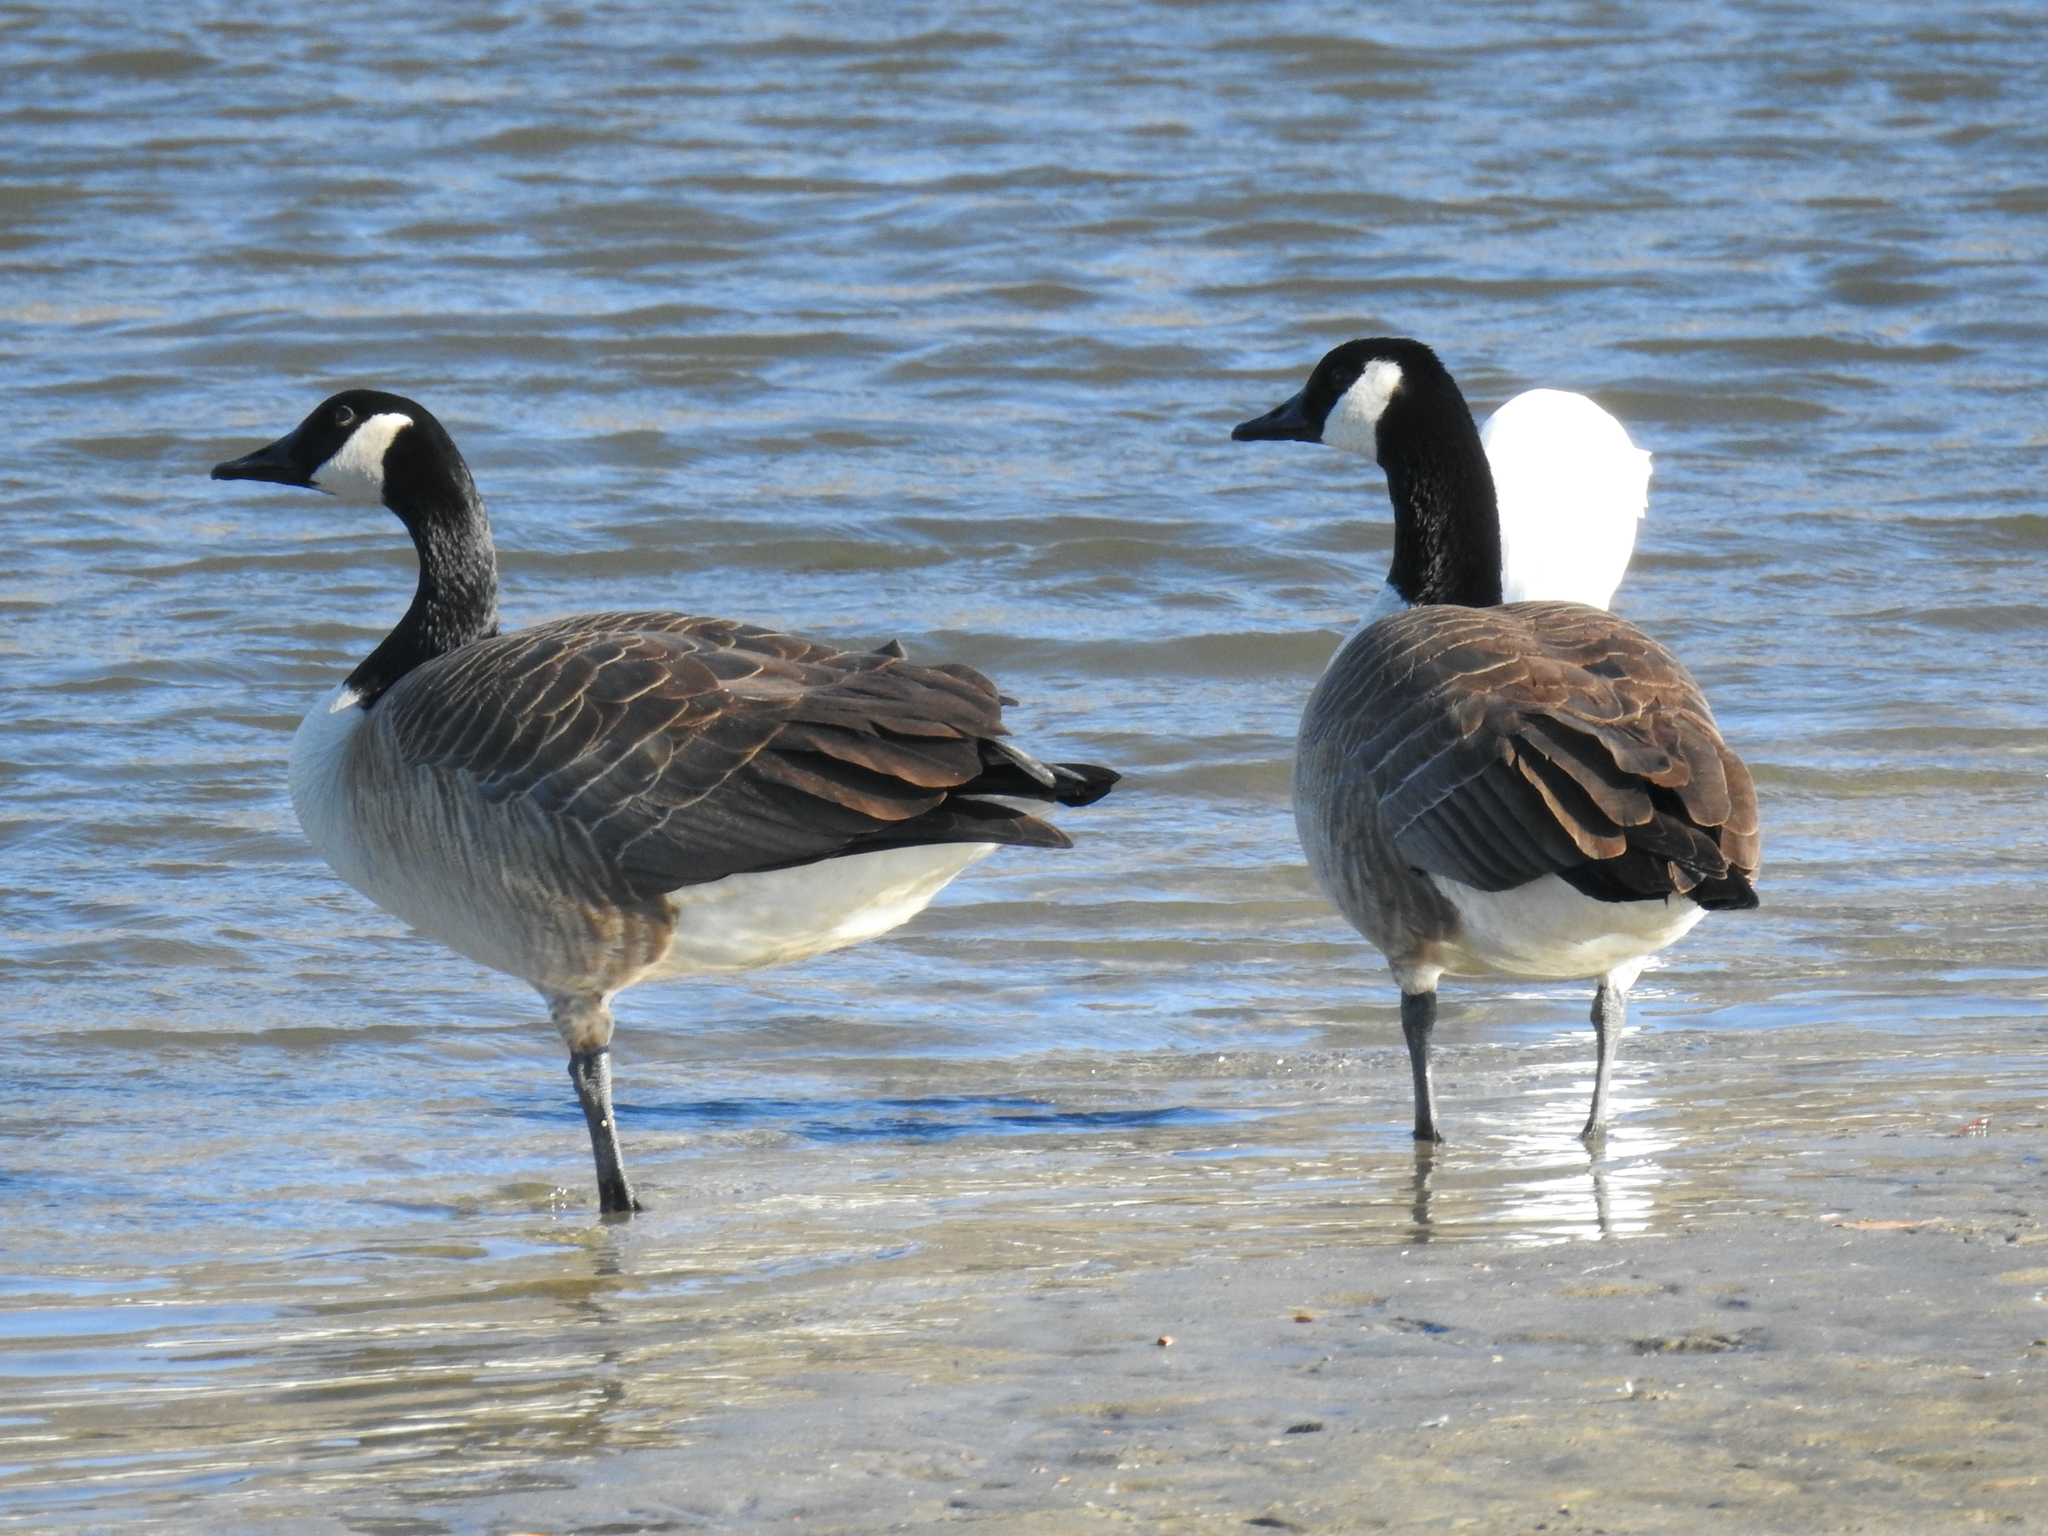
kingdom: Animalia
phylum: Chordata
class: Aves
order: Anseriformes
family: Anatidae
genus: Branta
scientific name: Branta canadensis
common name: Canada goose
